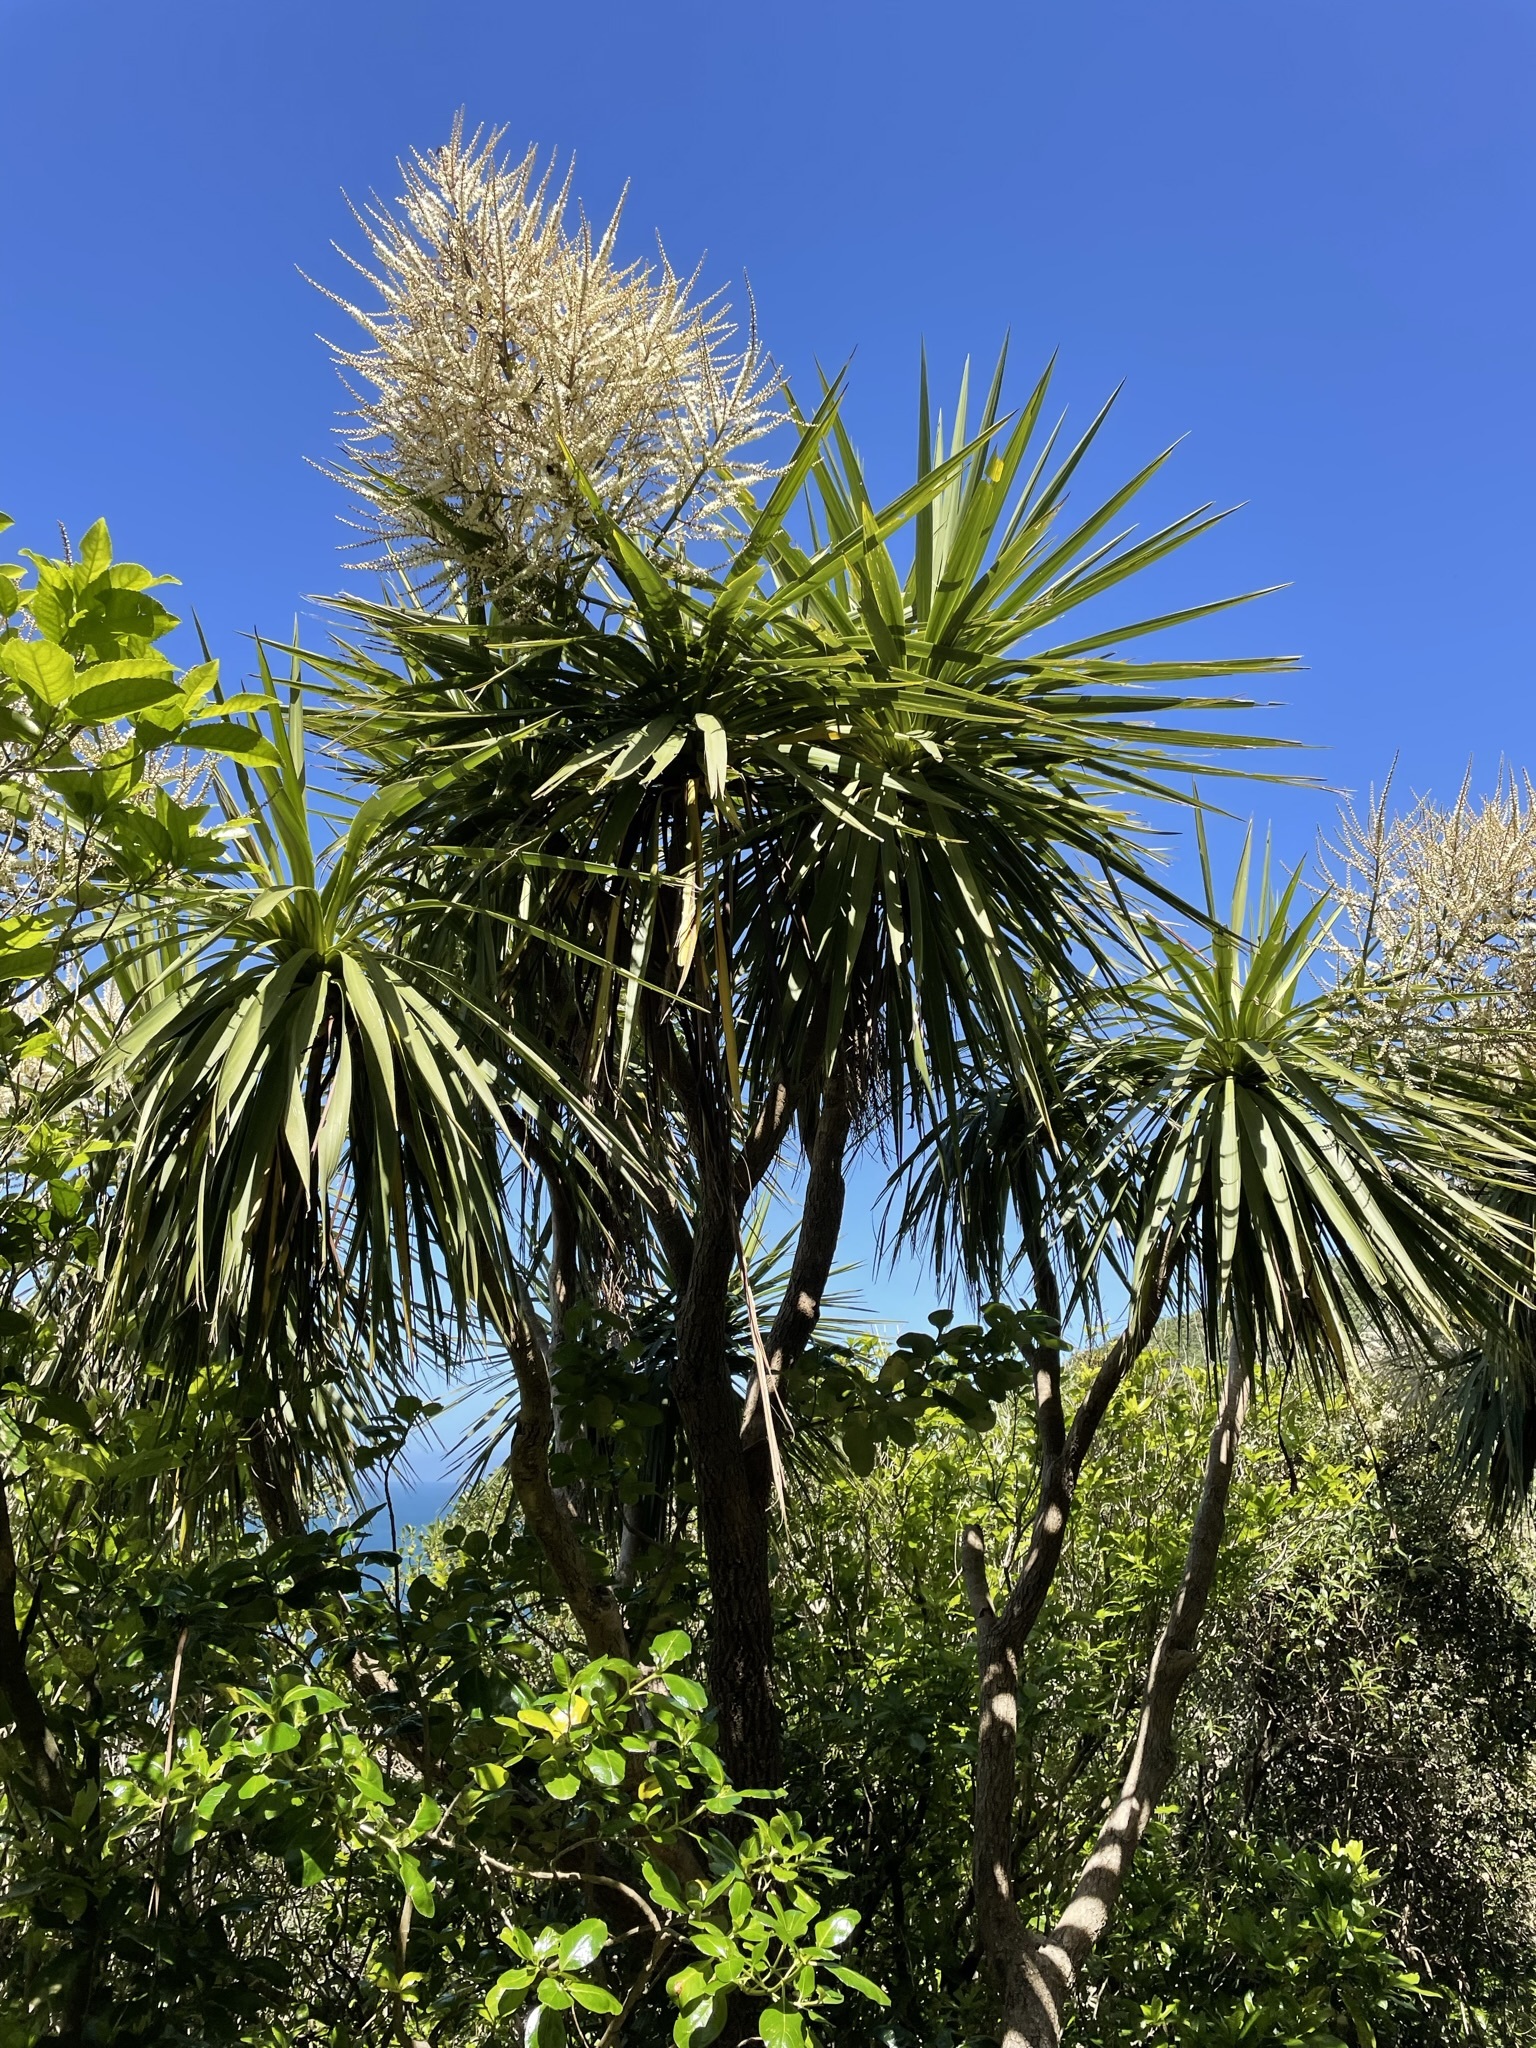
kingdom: Plantae
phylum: Tracheophyta
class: Liliopsida
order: Asparagales
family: Asparagaceae
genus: Cordyline
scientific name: Cordyline australis
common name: Cabbage-palm
